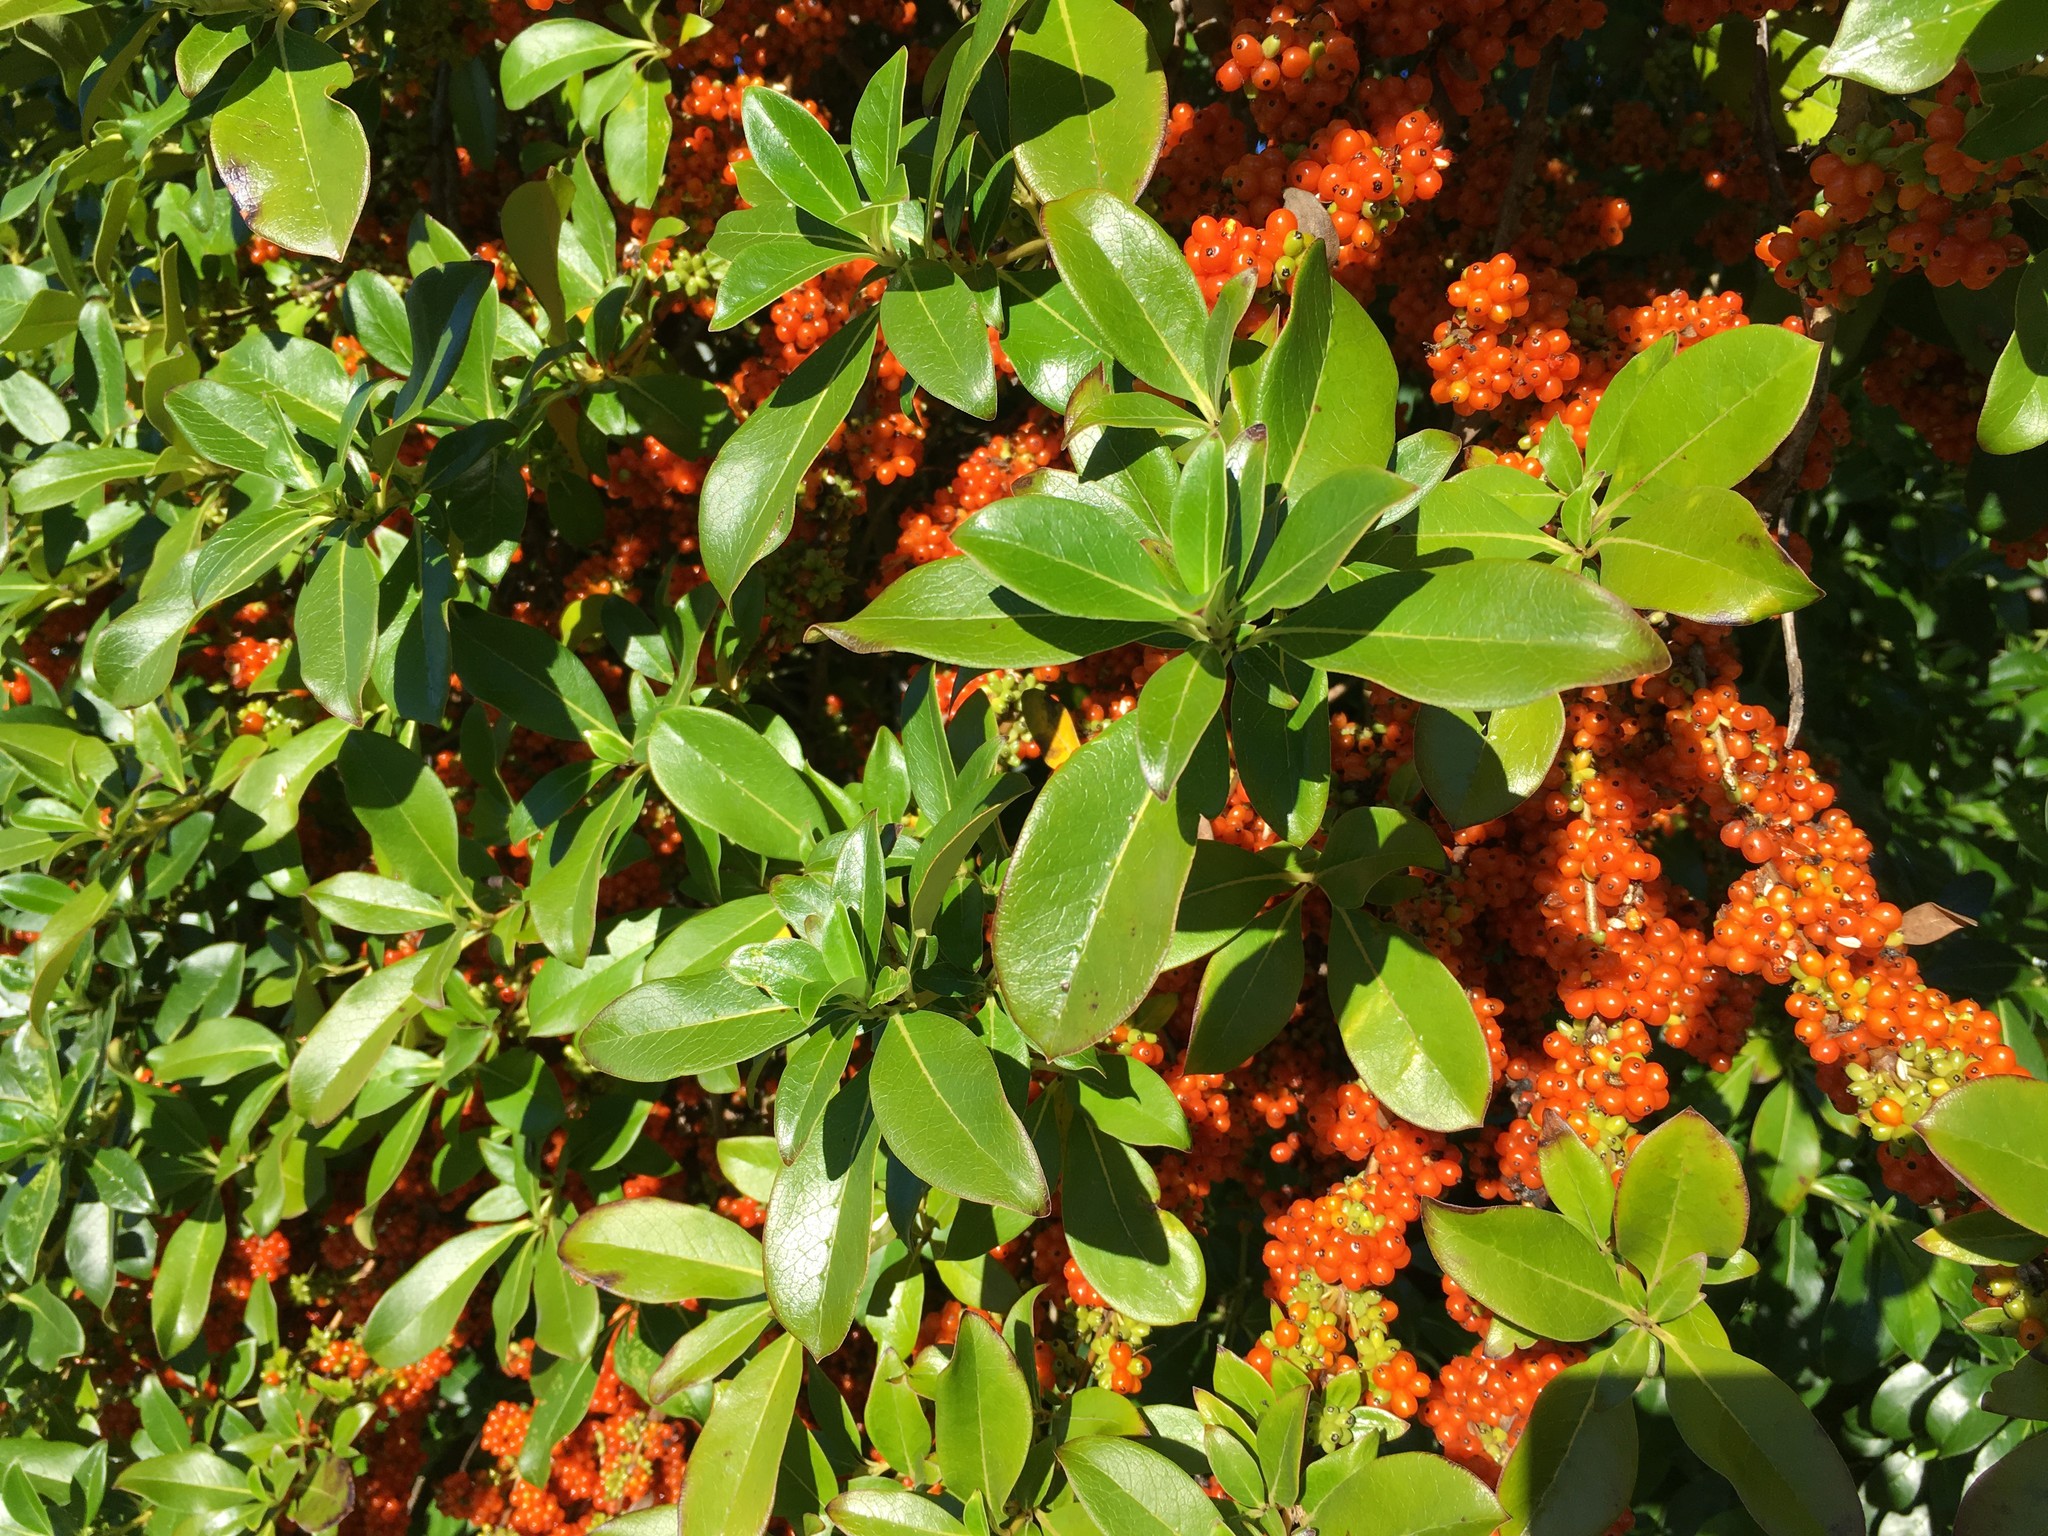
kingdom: Plantae
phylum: Tracheophyta
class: Magnoliopsida
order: Gentianales
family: Rubiaceae
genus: Coprosma
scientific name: Coprosma robusta
